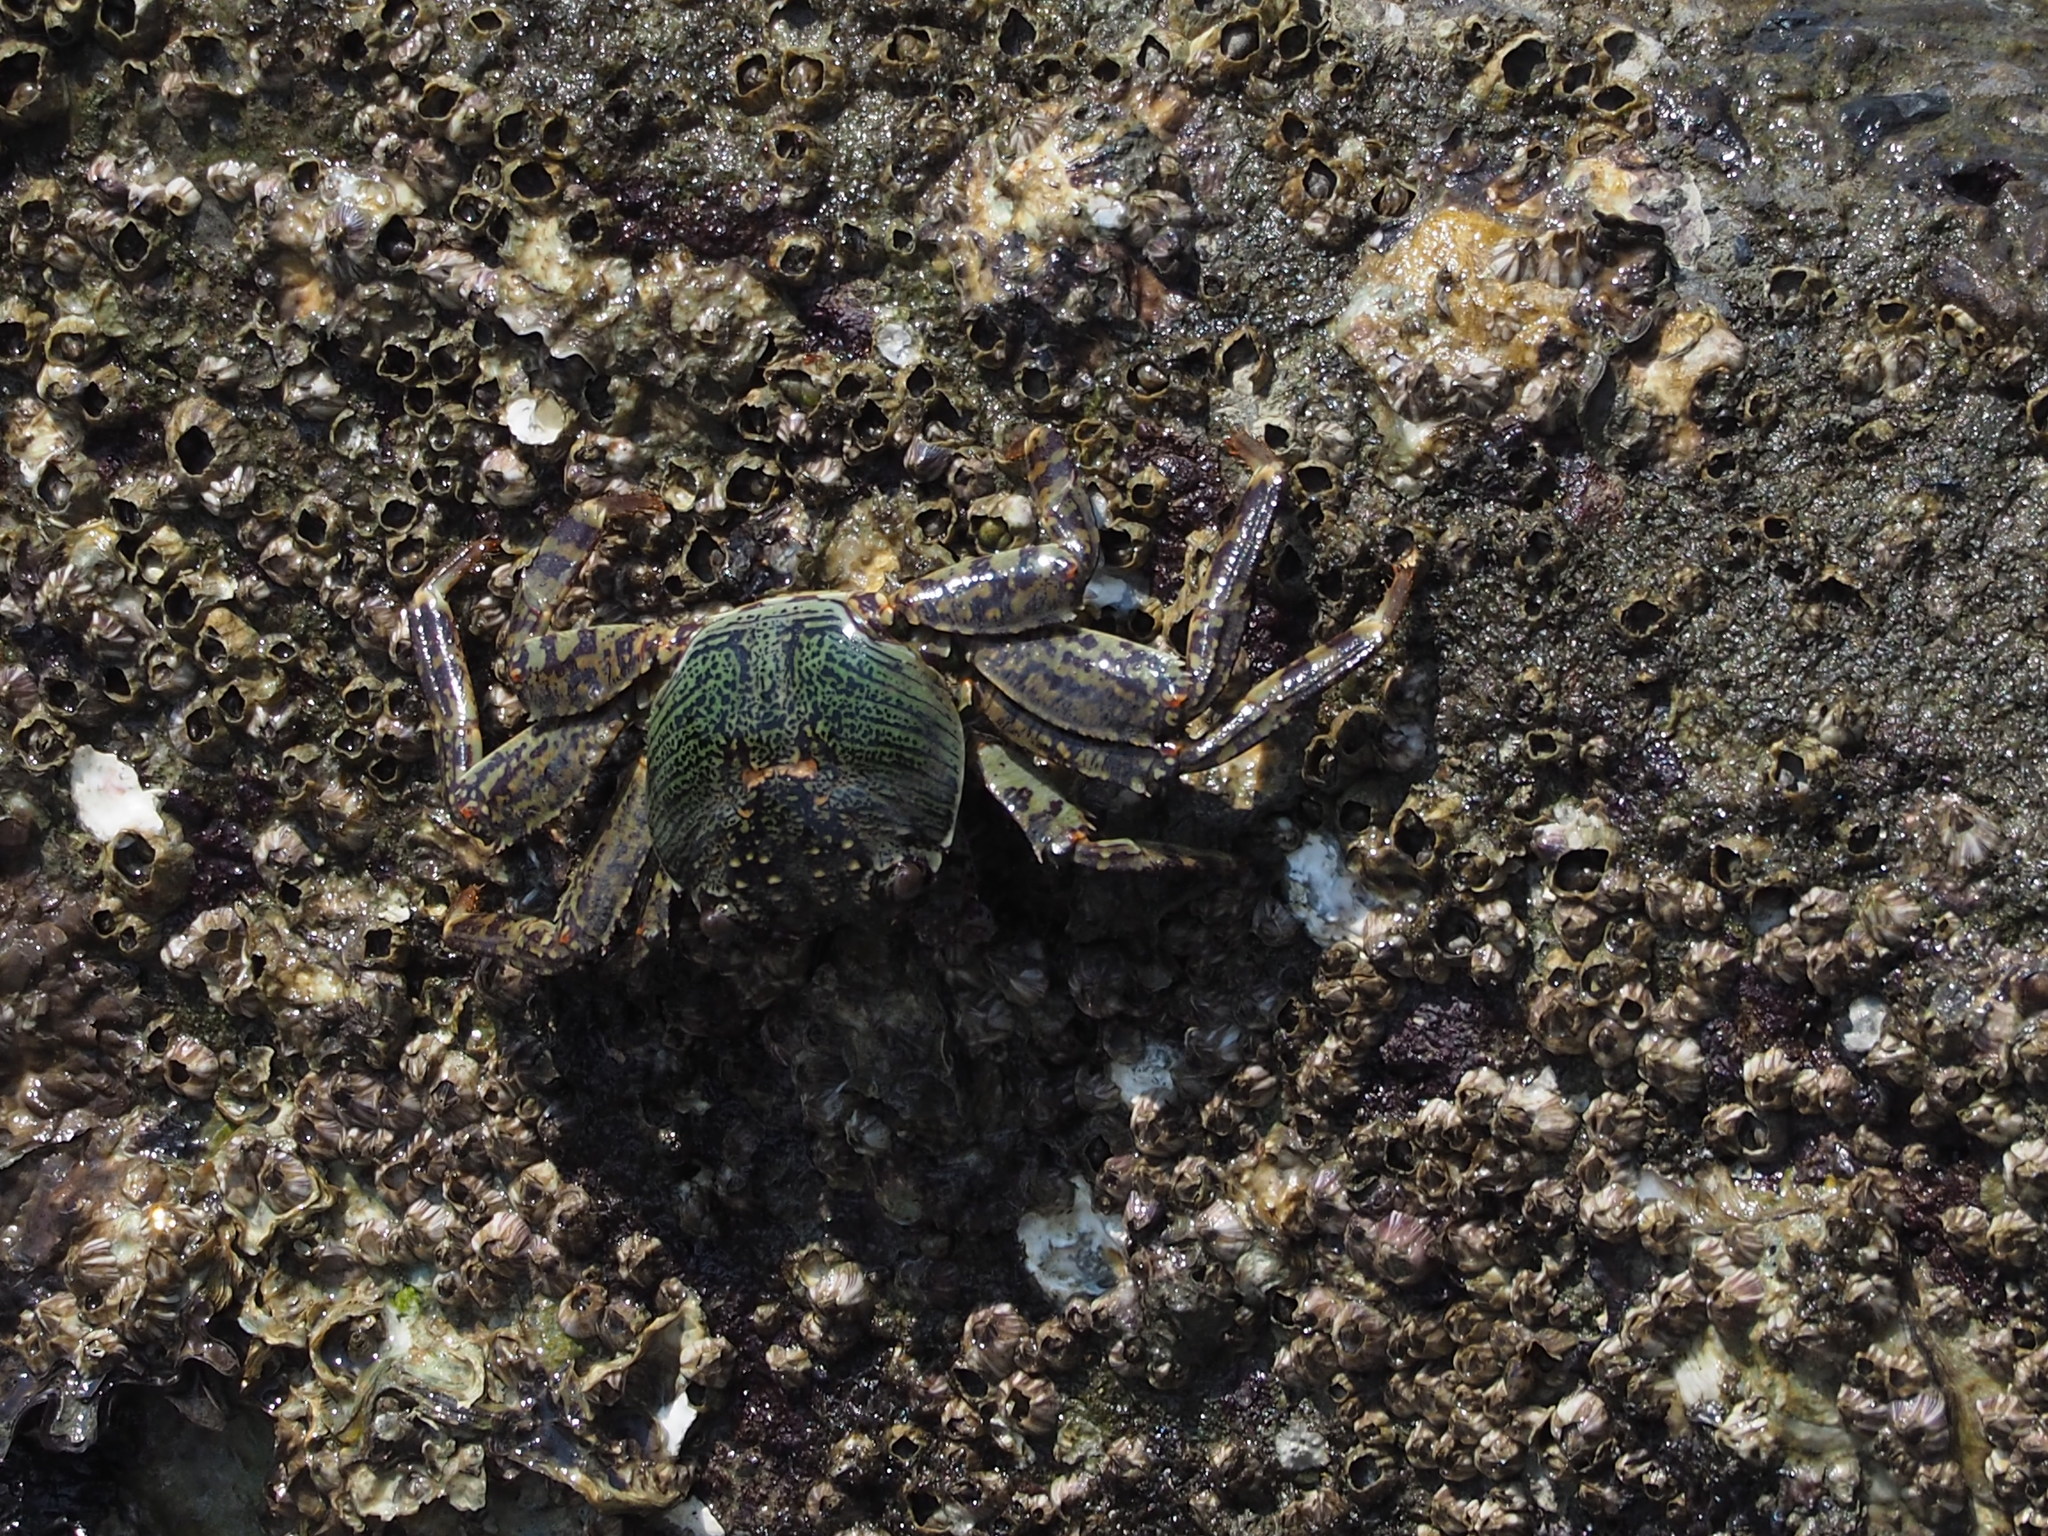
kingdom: Animalia
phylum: Arthropoda
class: Malacostraca
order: Decapoda
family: Grapsidae
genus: Grapsus
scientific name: Grapsus albolineatus
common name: Mottled lightfoot crab
